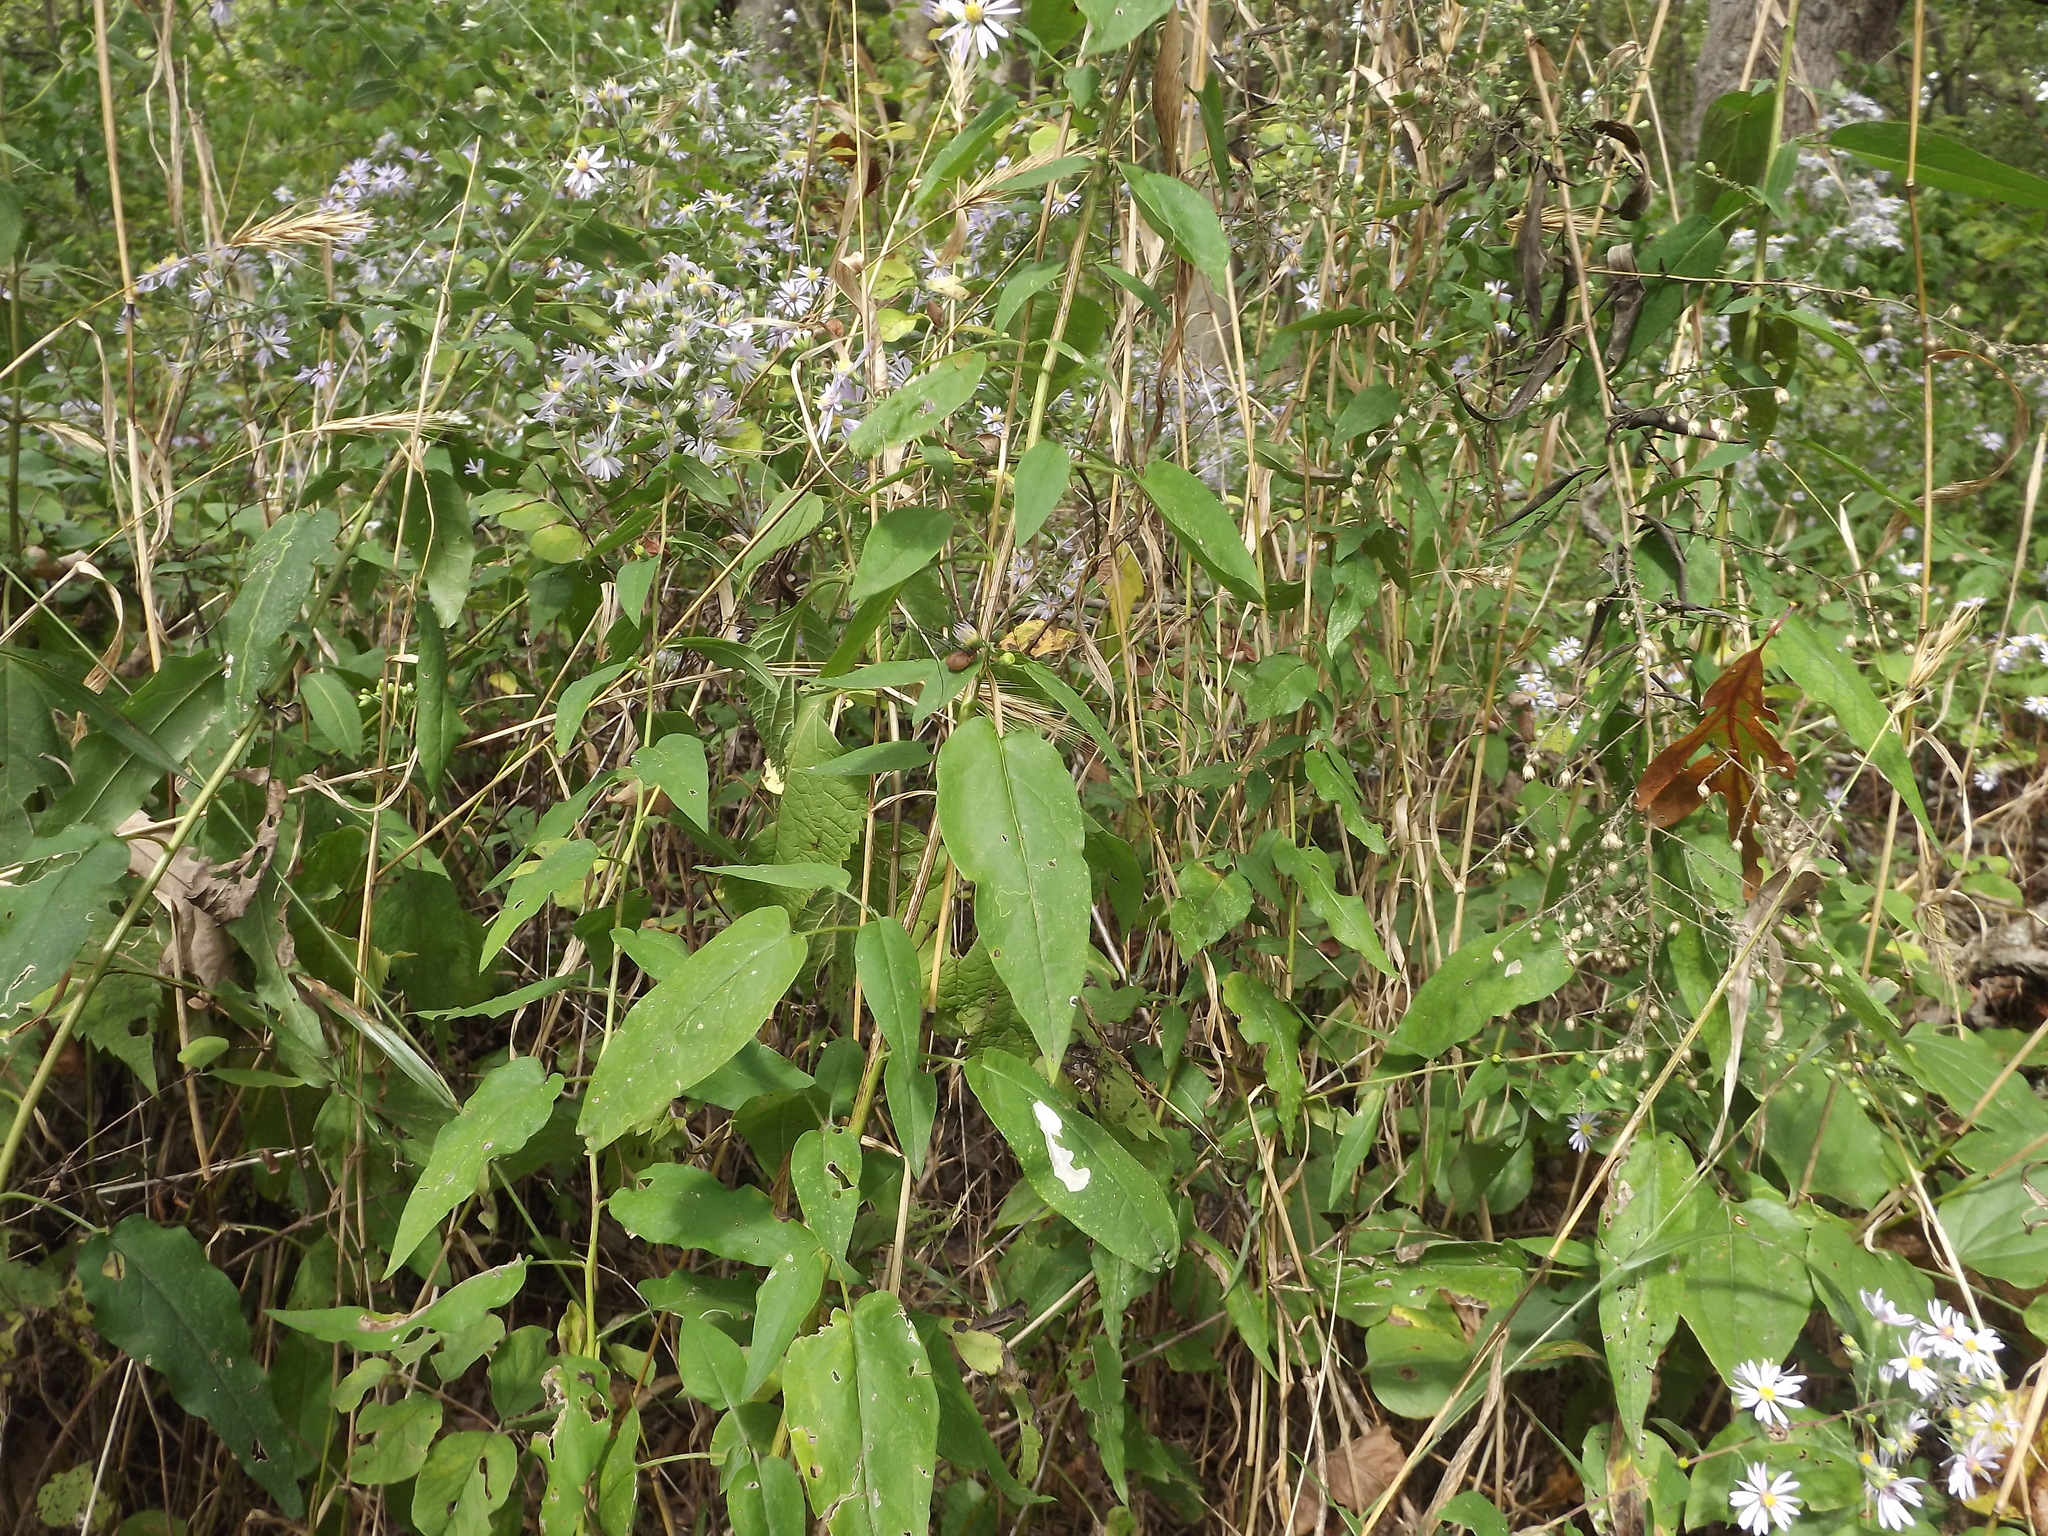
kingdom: Animalia
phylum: Arthropoda
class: Arachnida
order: Opiliones
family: Sclerosomatidae
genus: Leiobunum
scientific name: Leiobunum vittatum
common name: Eastern harvestman
